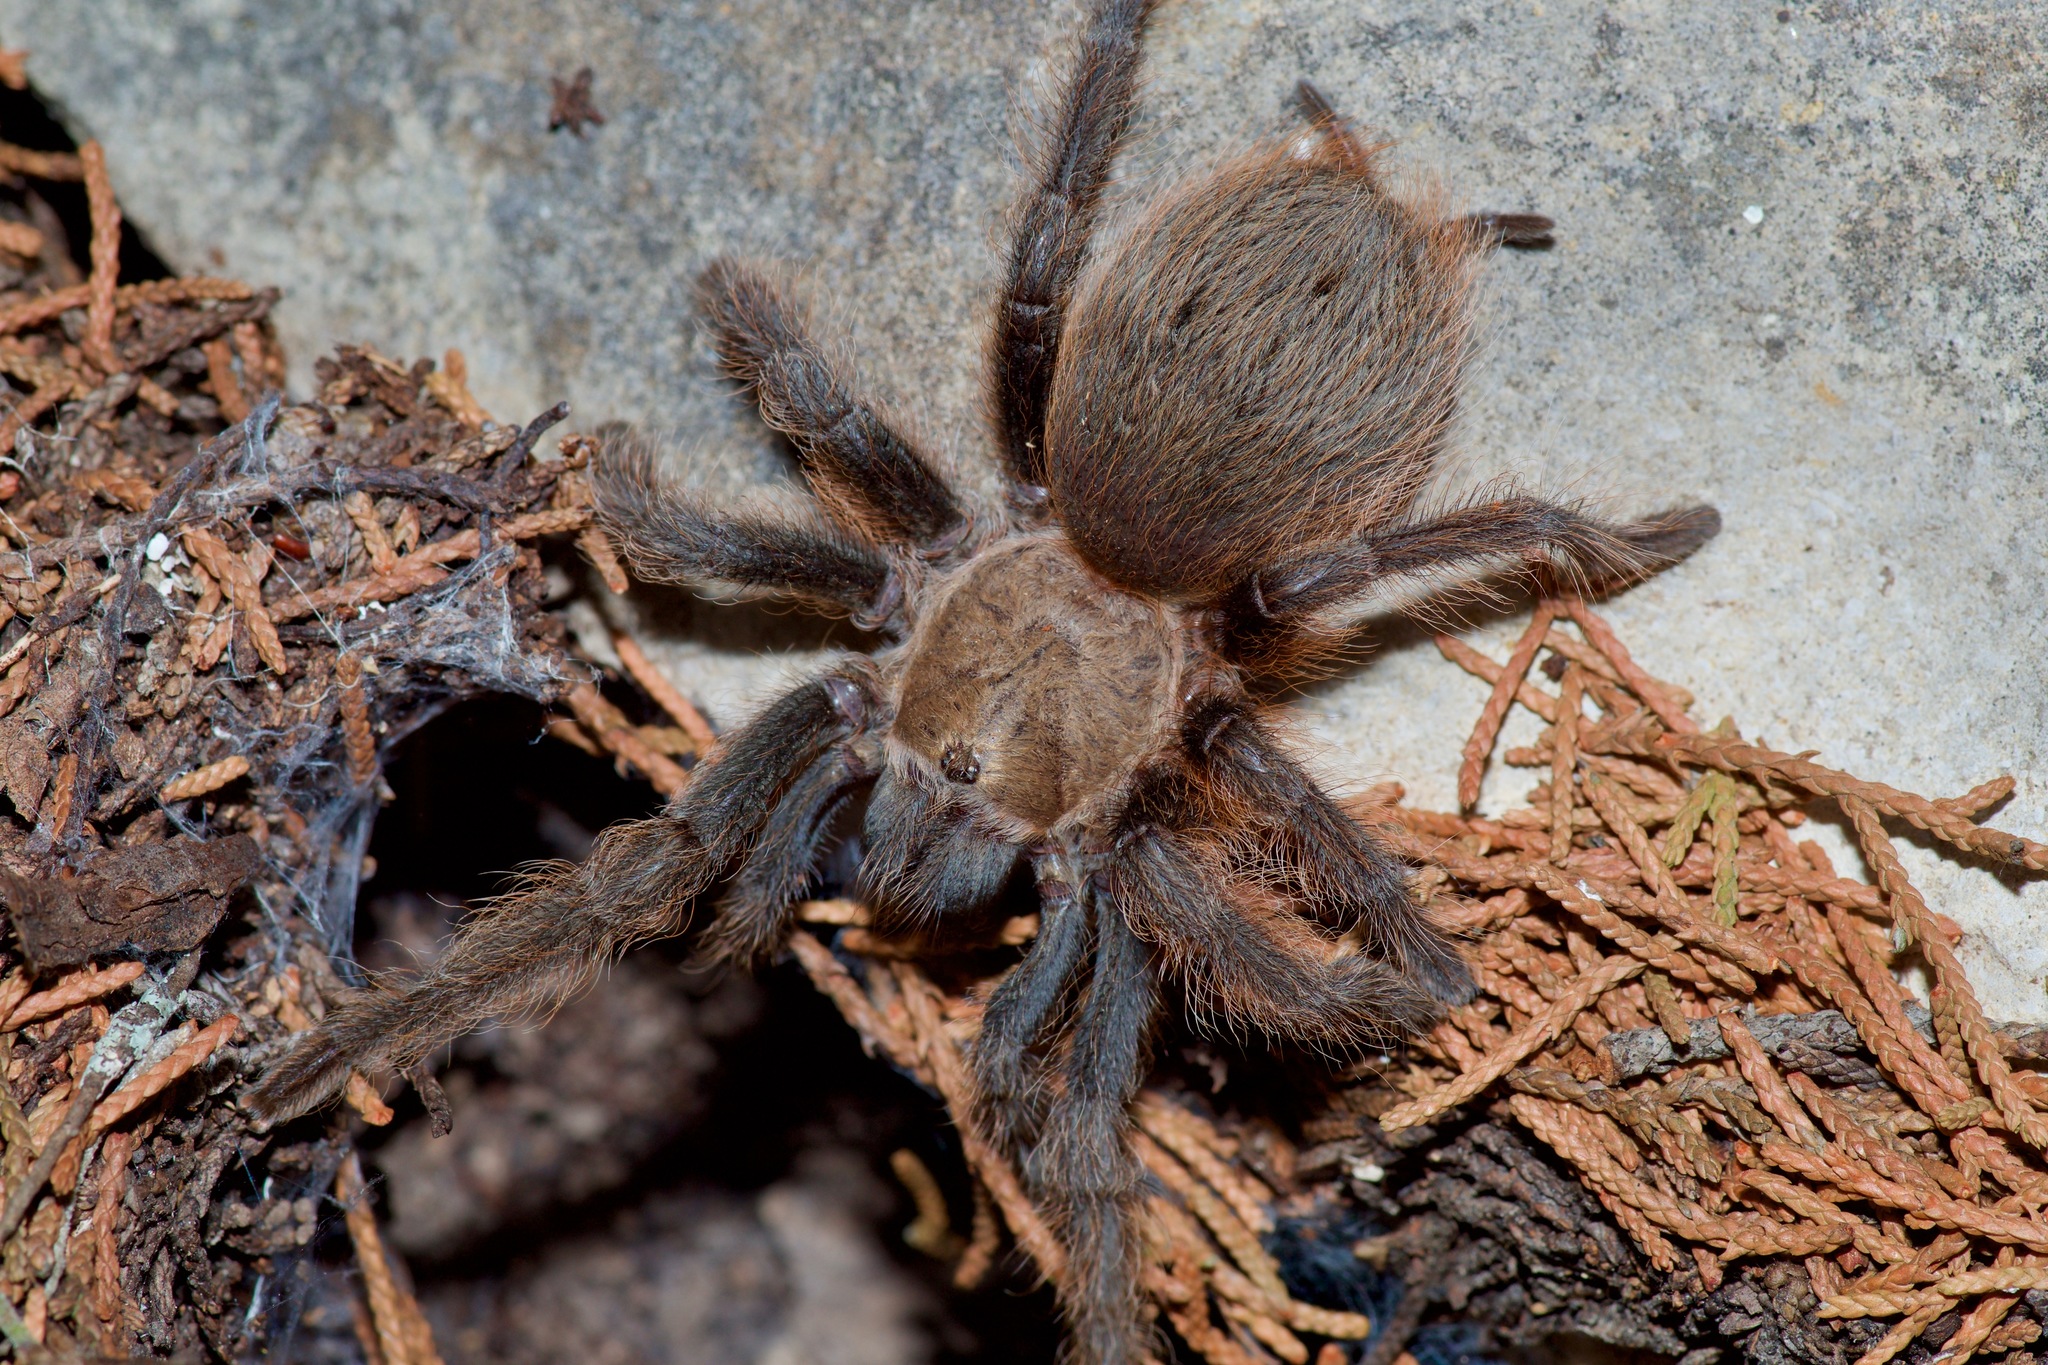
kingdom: Animalia
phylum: Arthropoda
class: Arachnida
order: Araneae
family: Theraphosidae
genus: Aphonopelma
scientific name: Aphonopelma hentzi
